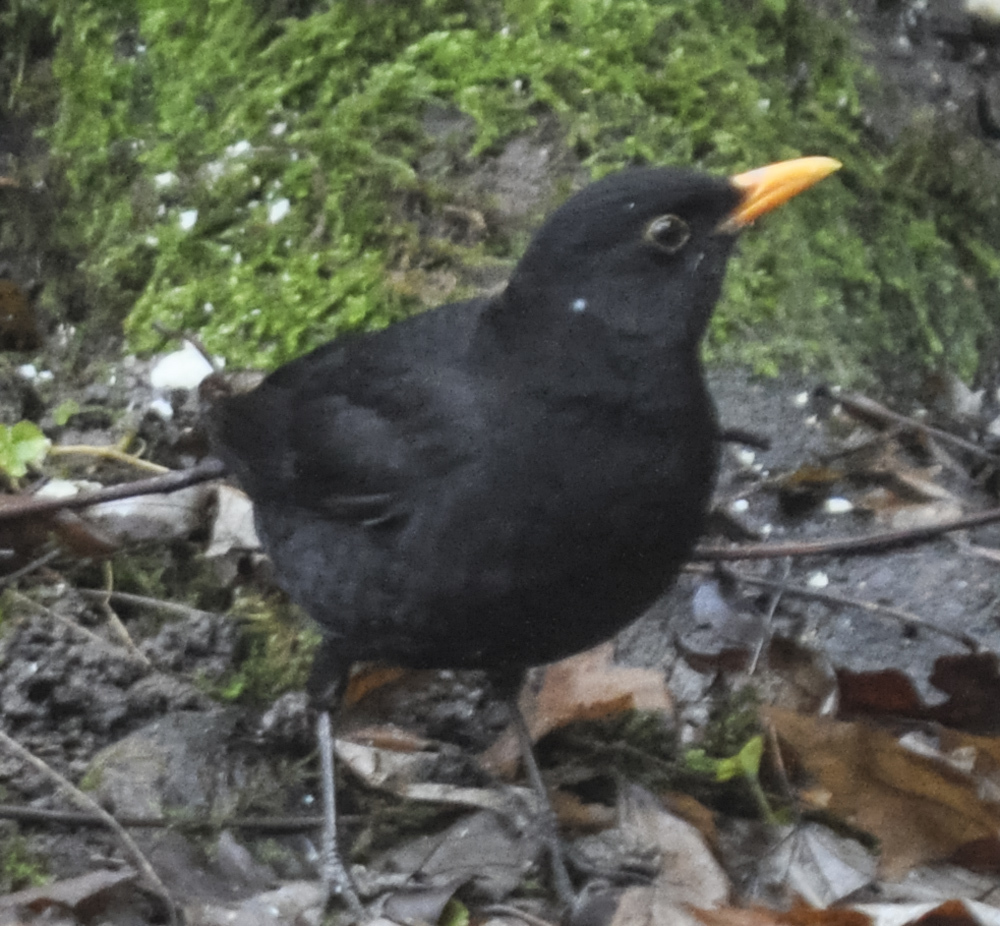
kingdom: Animalia
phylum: Chordata
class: Aves
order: Passeriformes
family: Turdidae
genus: Turdus
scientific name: Turdus merula
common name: Common blackbird
